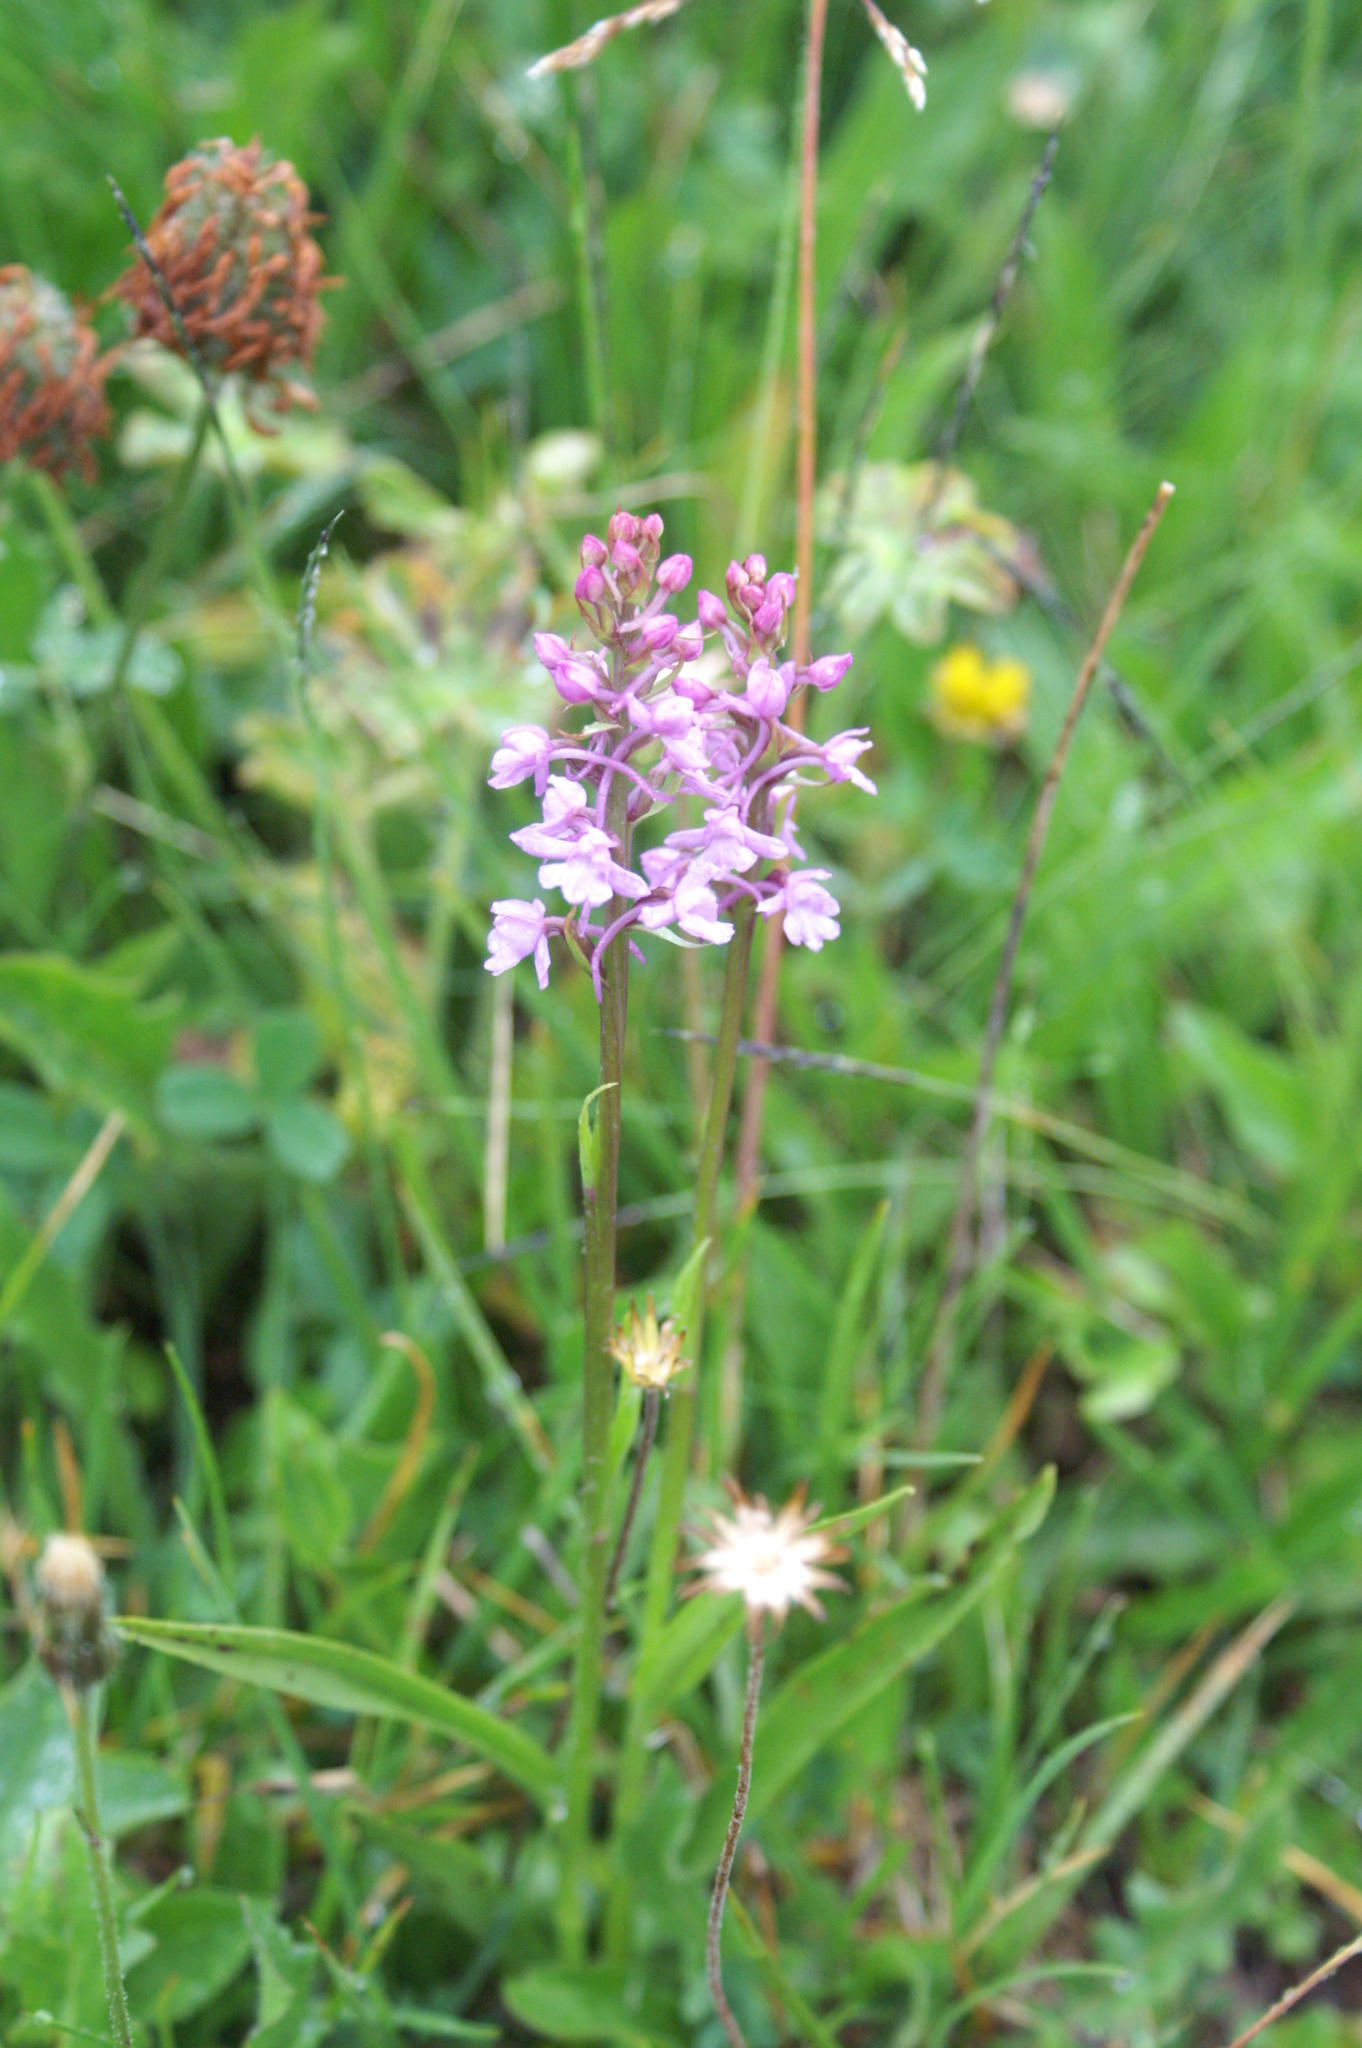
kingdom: Plantae
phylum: Tracheophyta
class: Liliopsida
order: Asparagales
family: Orchidaceae
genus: Gymnadenia
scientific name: Gymnadenia conopsea
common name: Fragrant orchid
